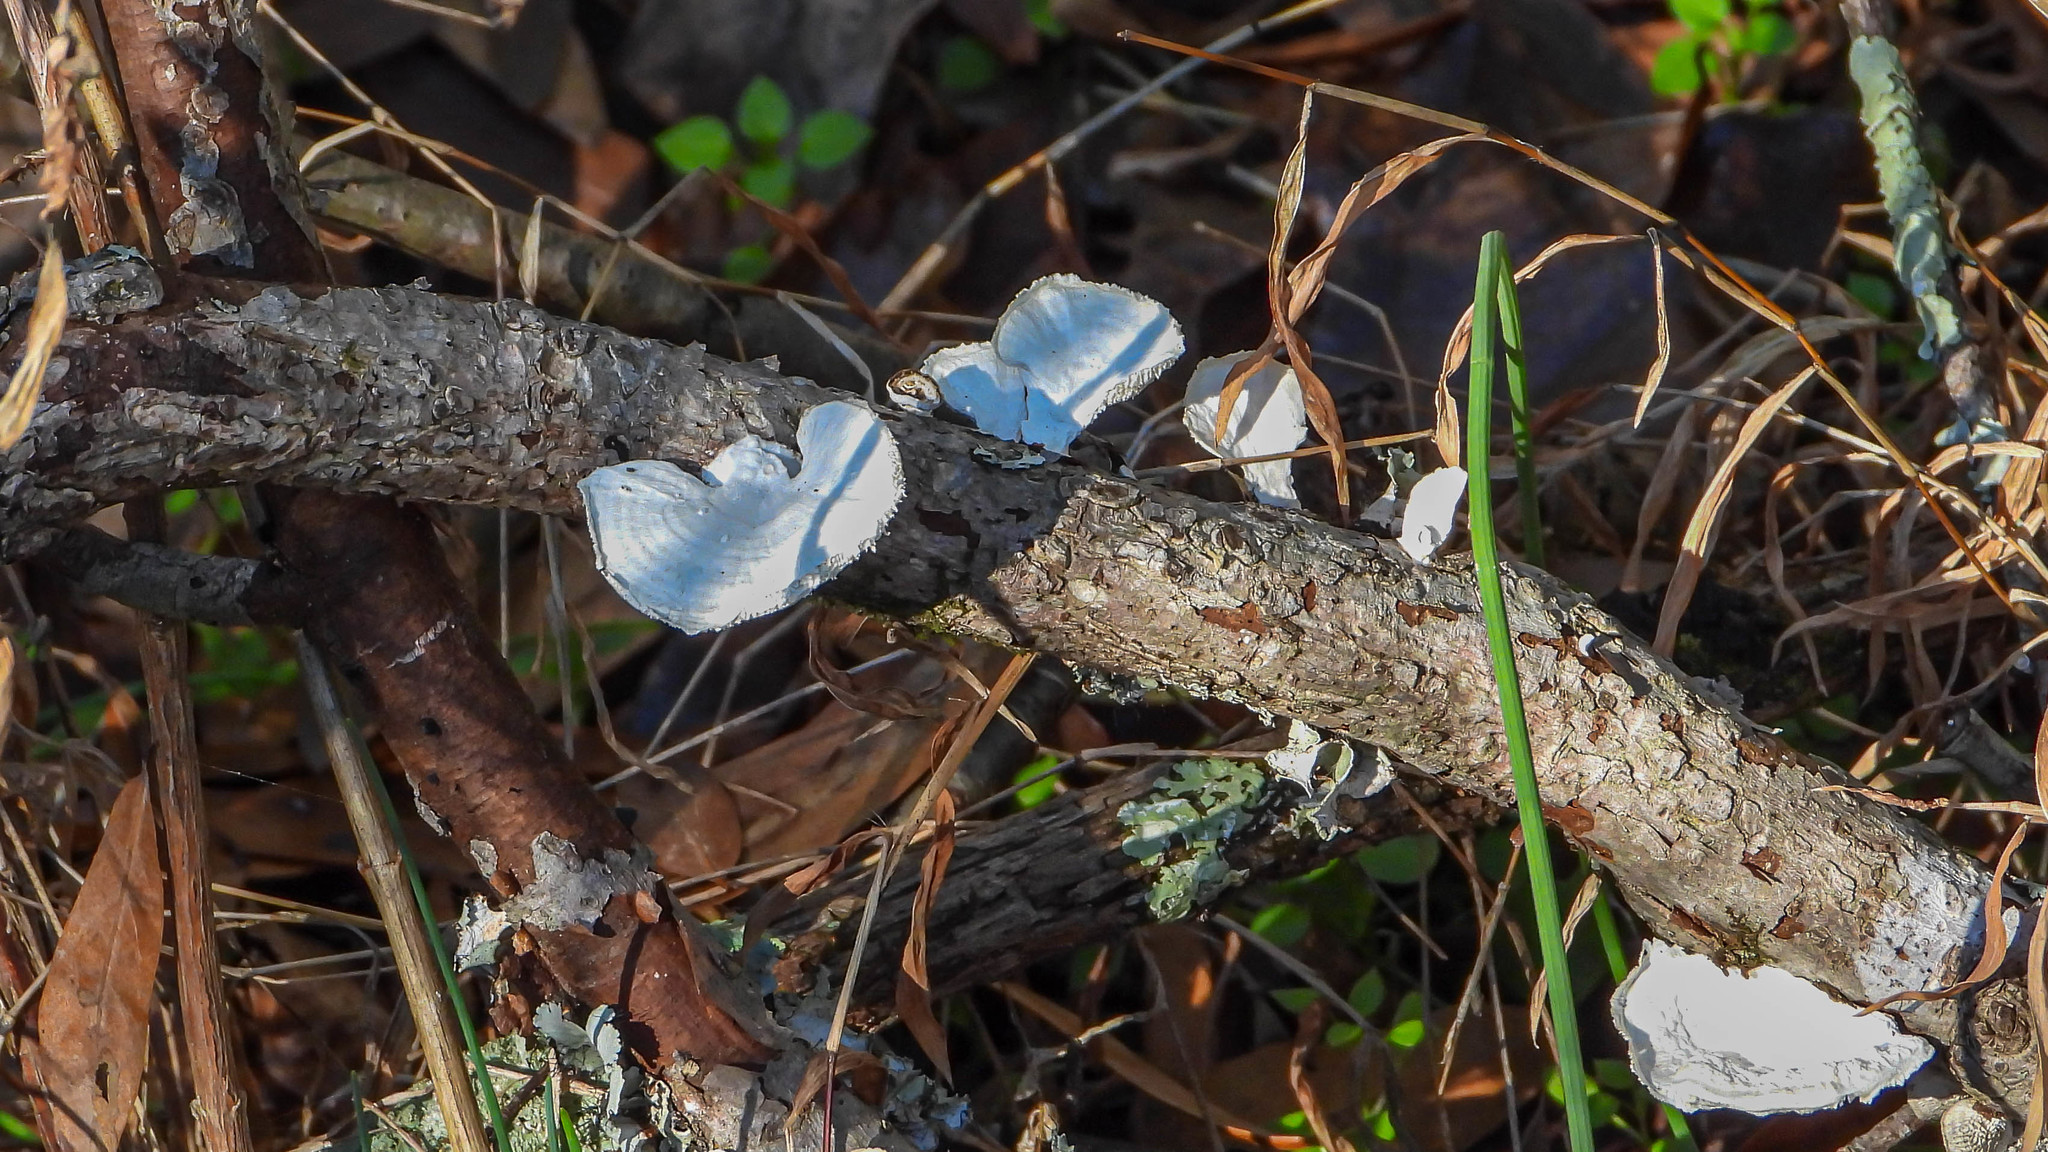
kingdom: Fungi
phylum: Basidiomycota
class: Agaricomycetes
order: Polyporales
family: Polyporaceae
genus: Poronidulus
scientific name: Poronidulus conchifer
